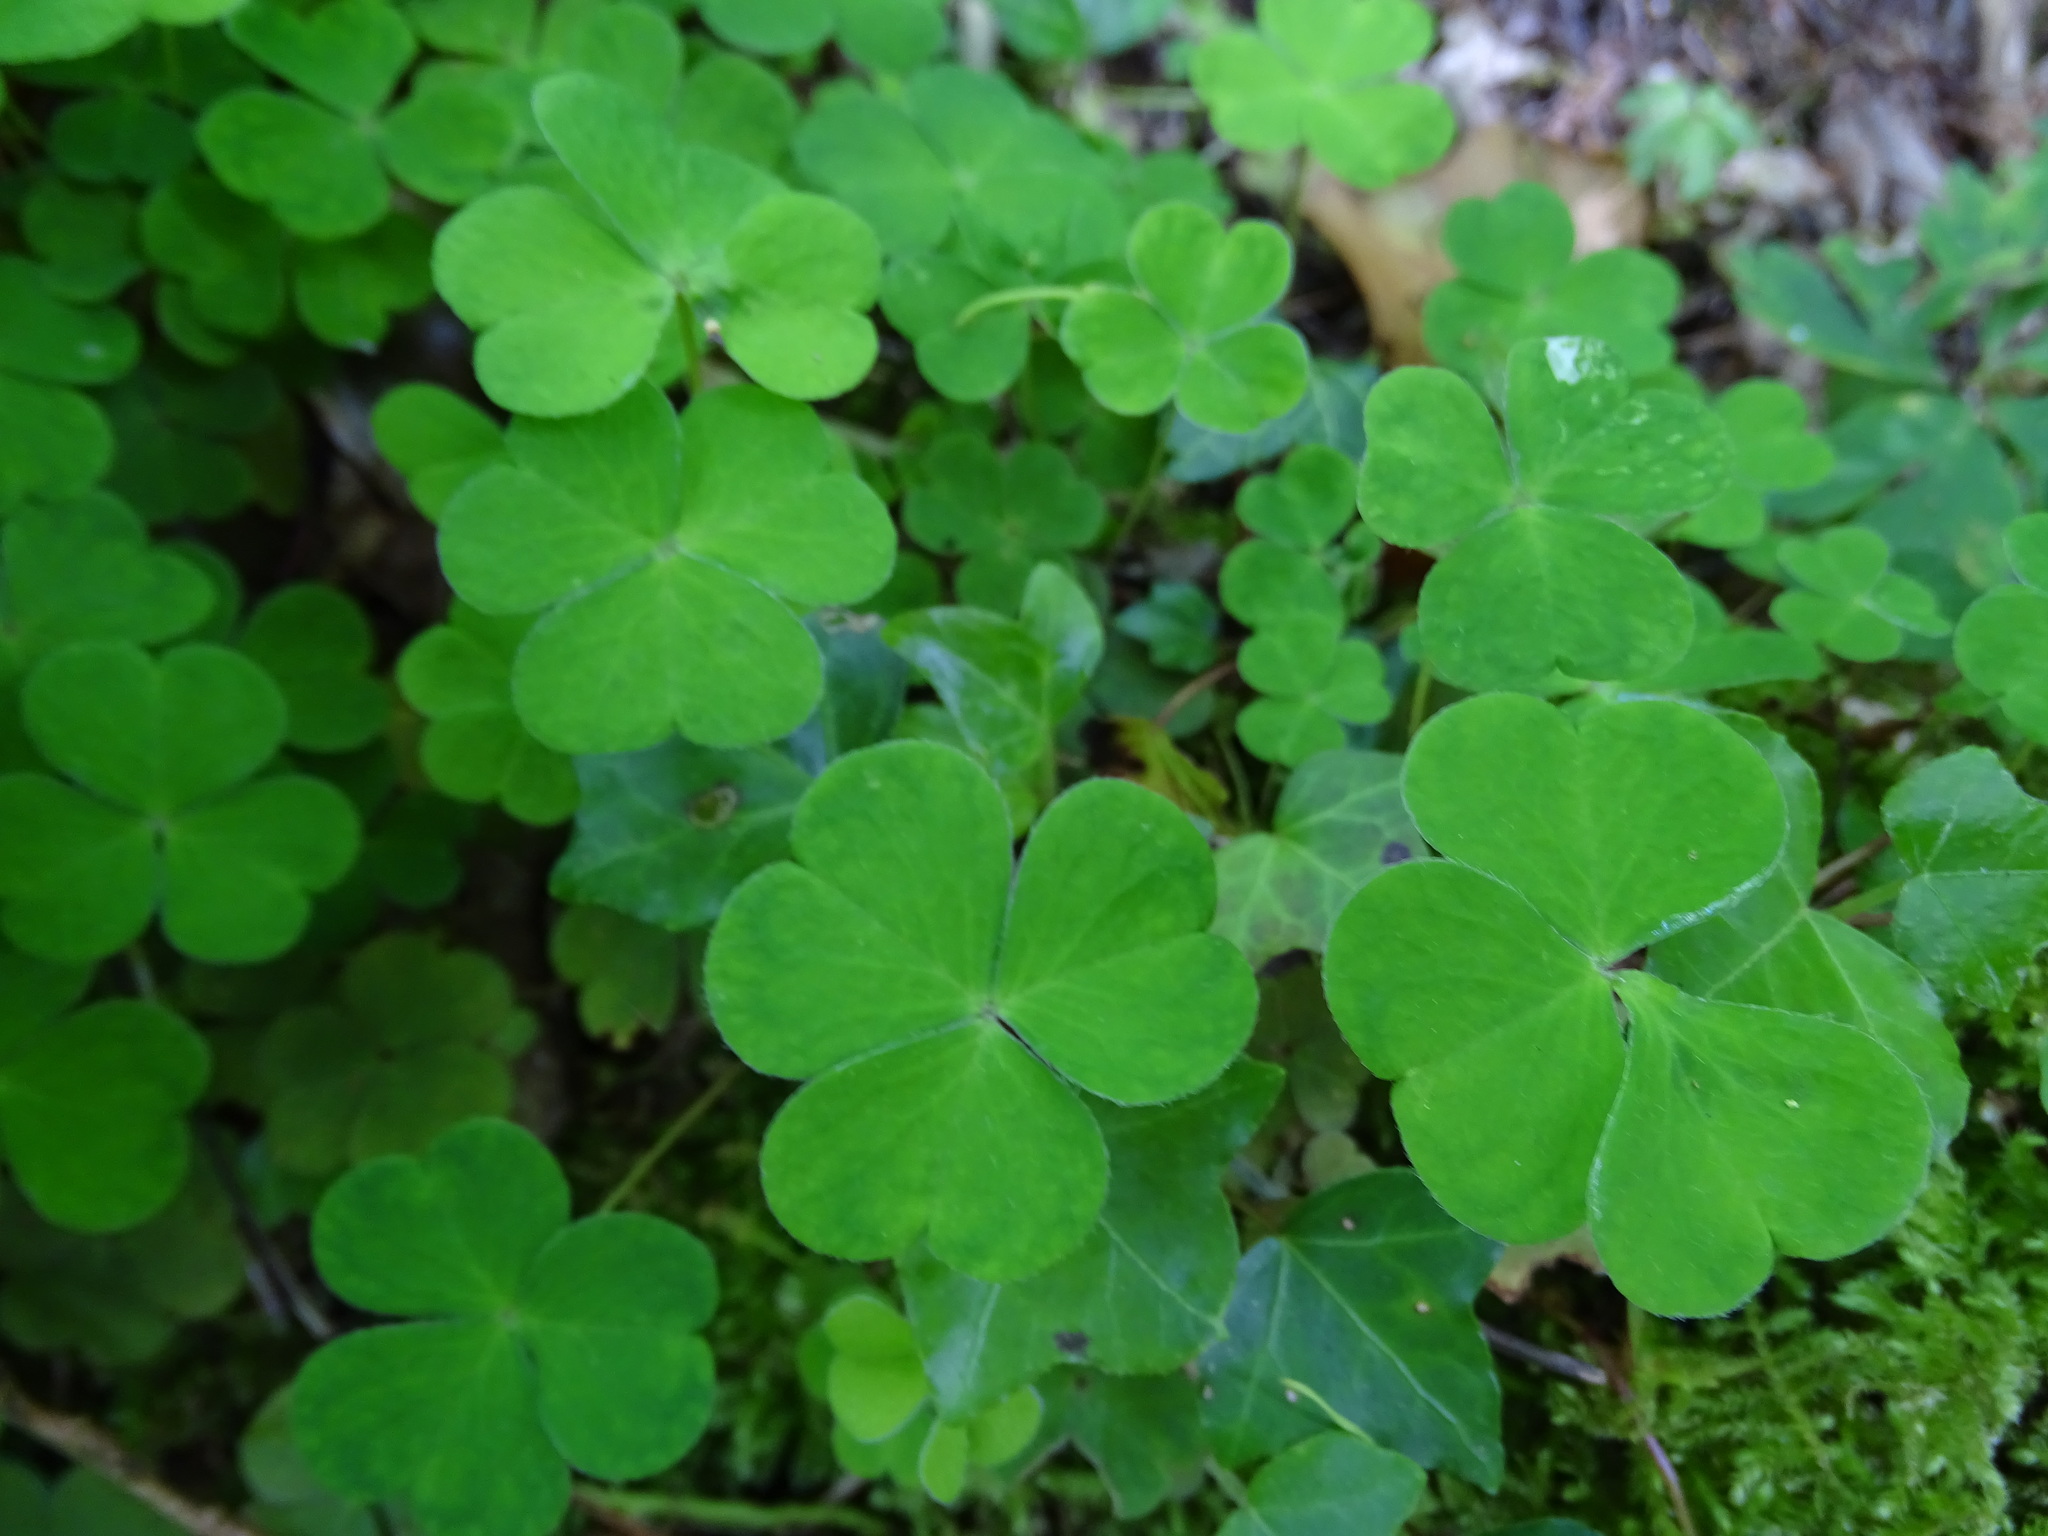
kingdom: Plantae
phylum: Tracheophyta
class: Magnoliopsida
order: Oxalidales
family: Oxalidaceae
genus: Oxalis
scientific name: Oxalis acetosella
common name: Wood-sorrel
